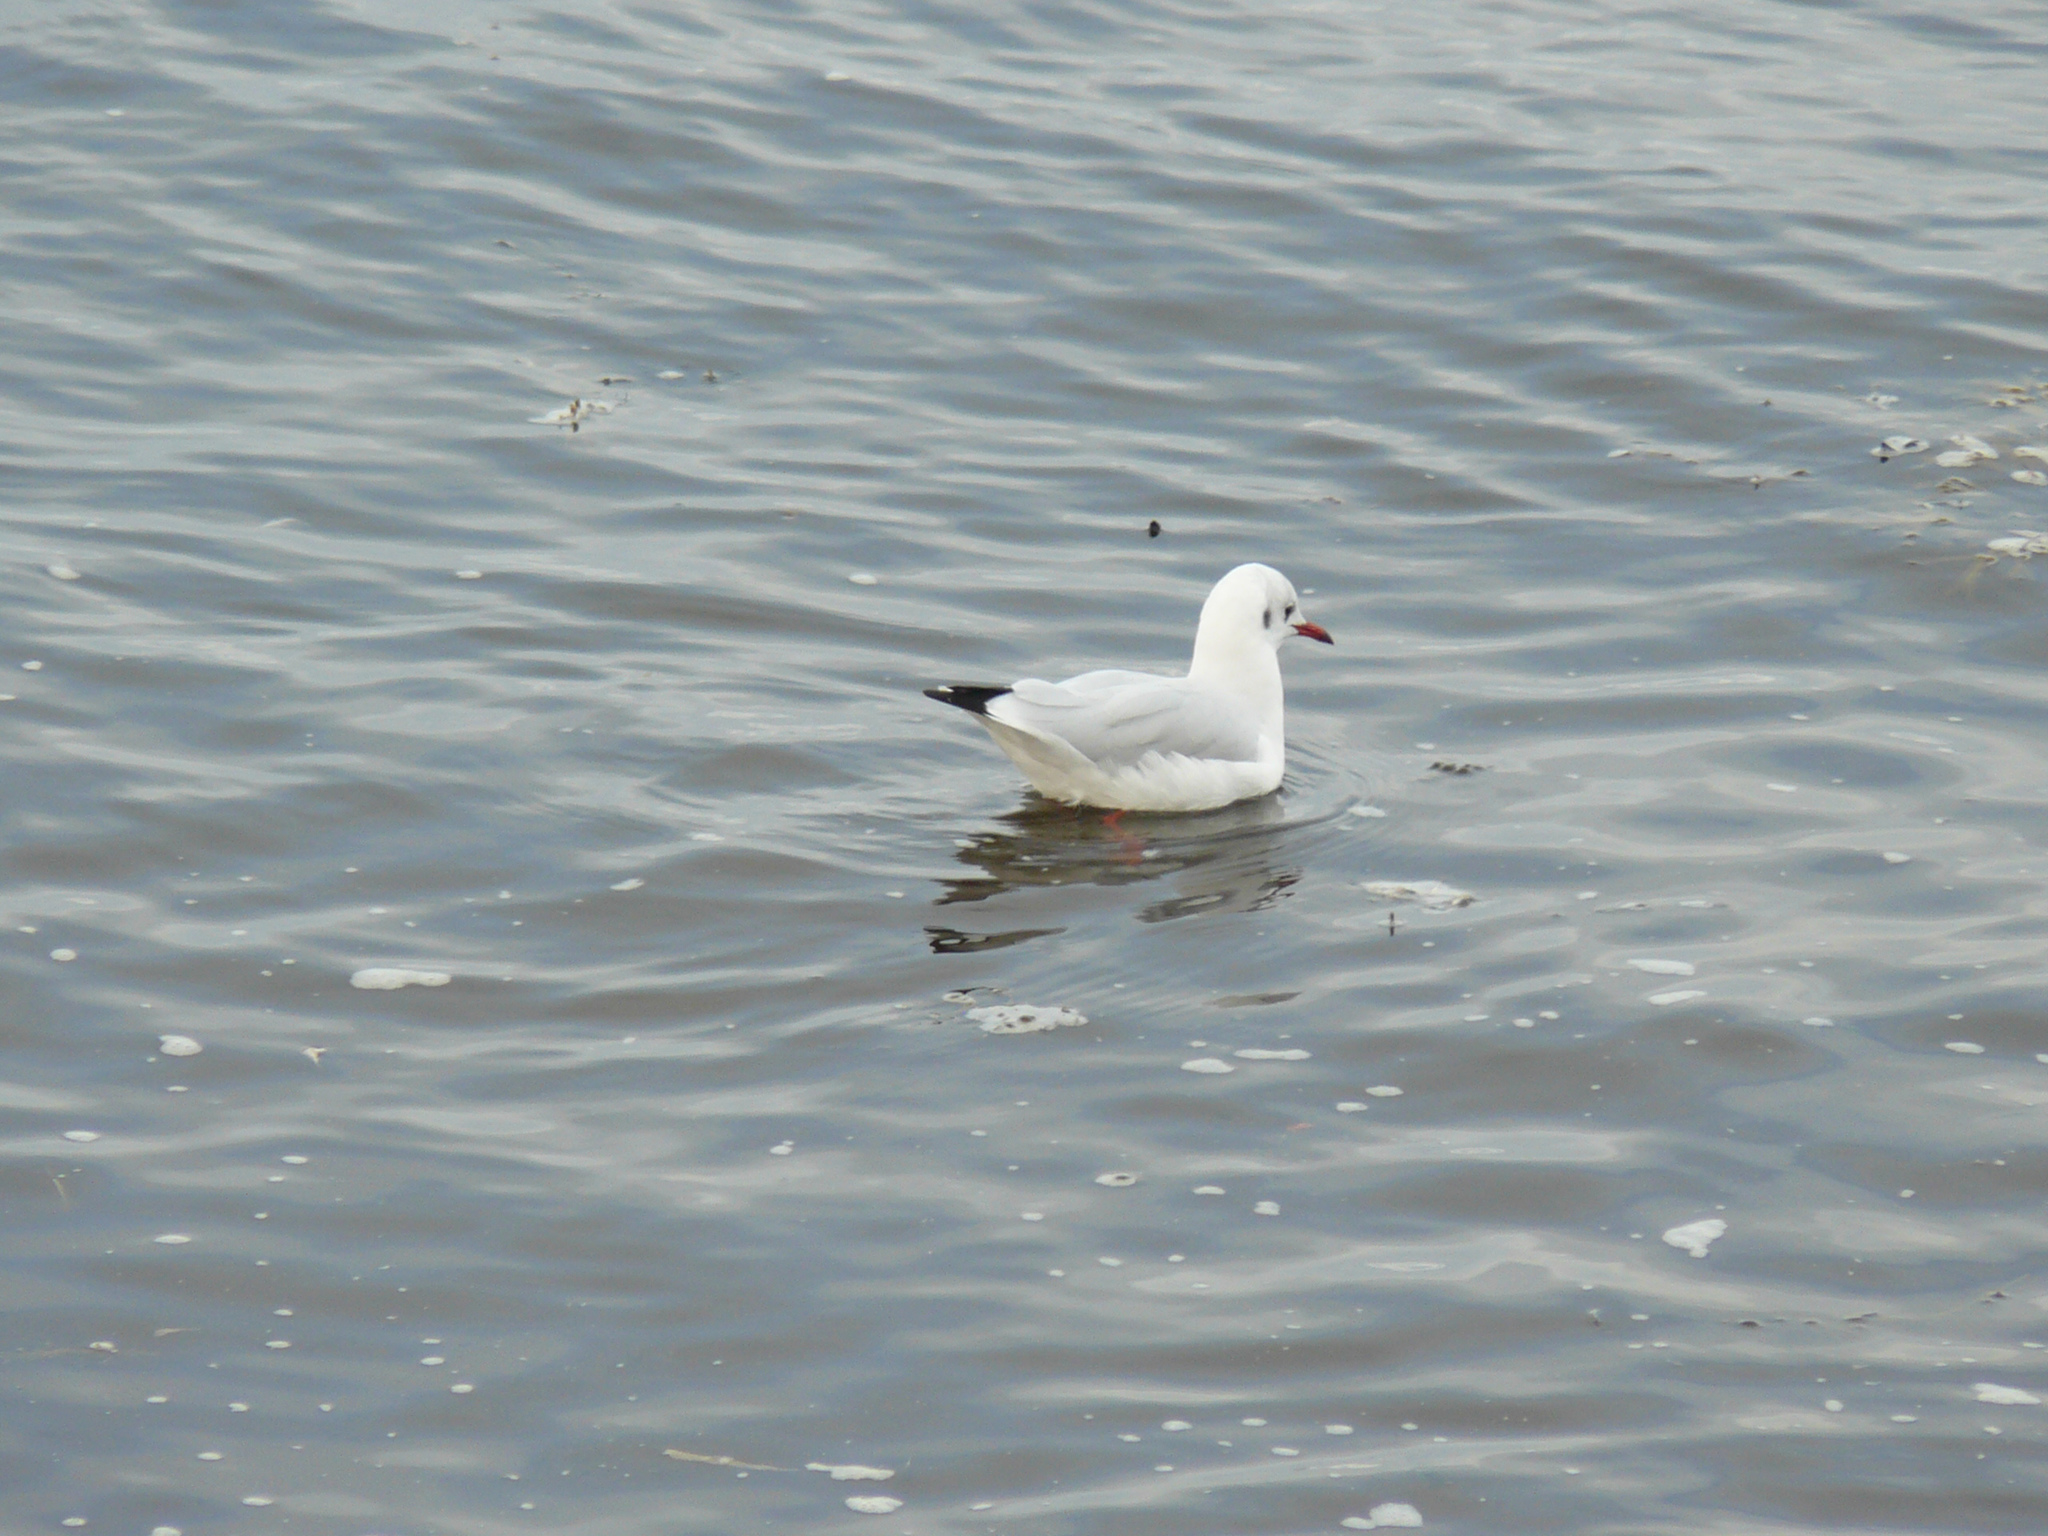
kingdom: Animalia
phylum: Chordata
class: Aves
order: Charadriiformes
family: Laridae
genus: Chroicocephalus
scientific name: Chroicocephalus ridibundus
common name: Black-headed gull
